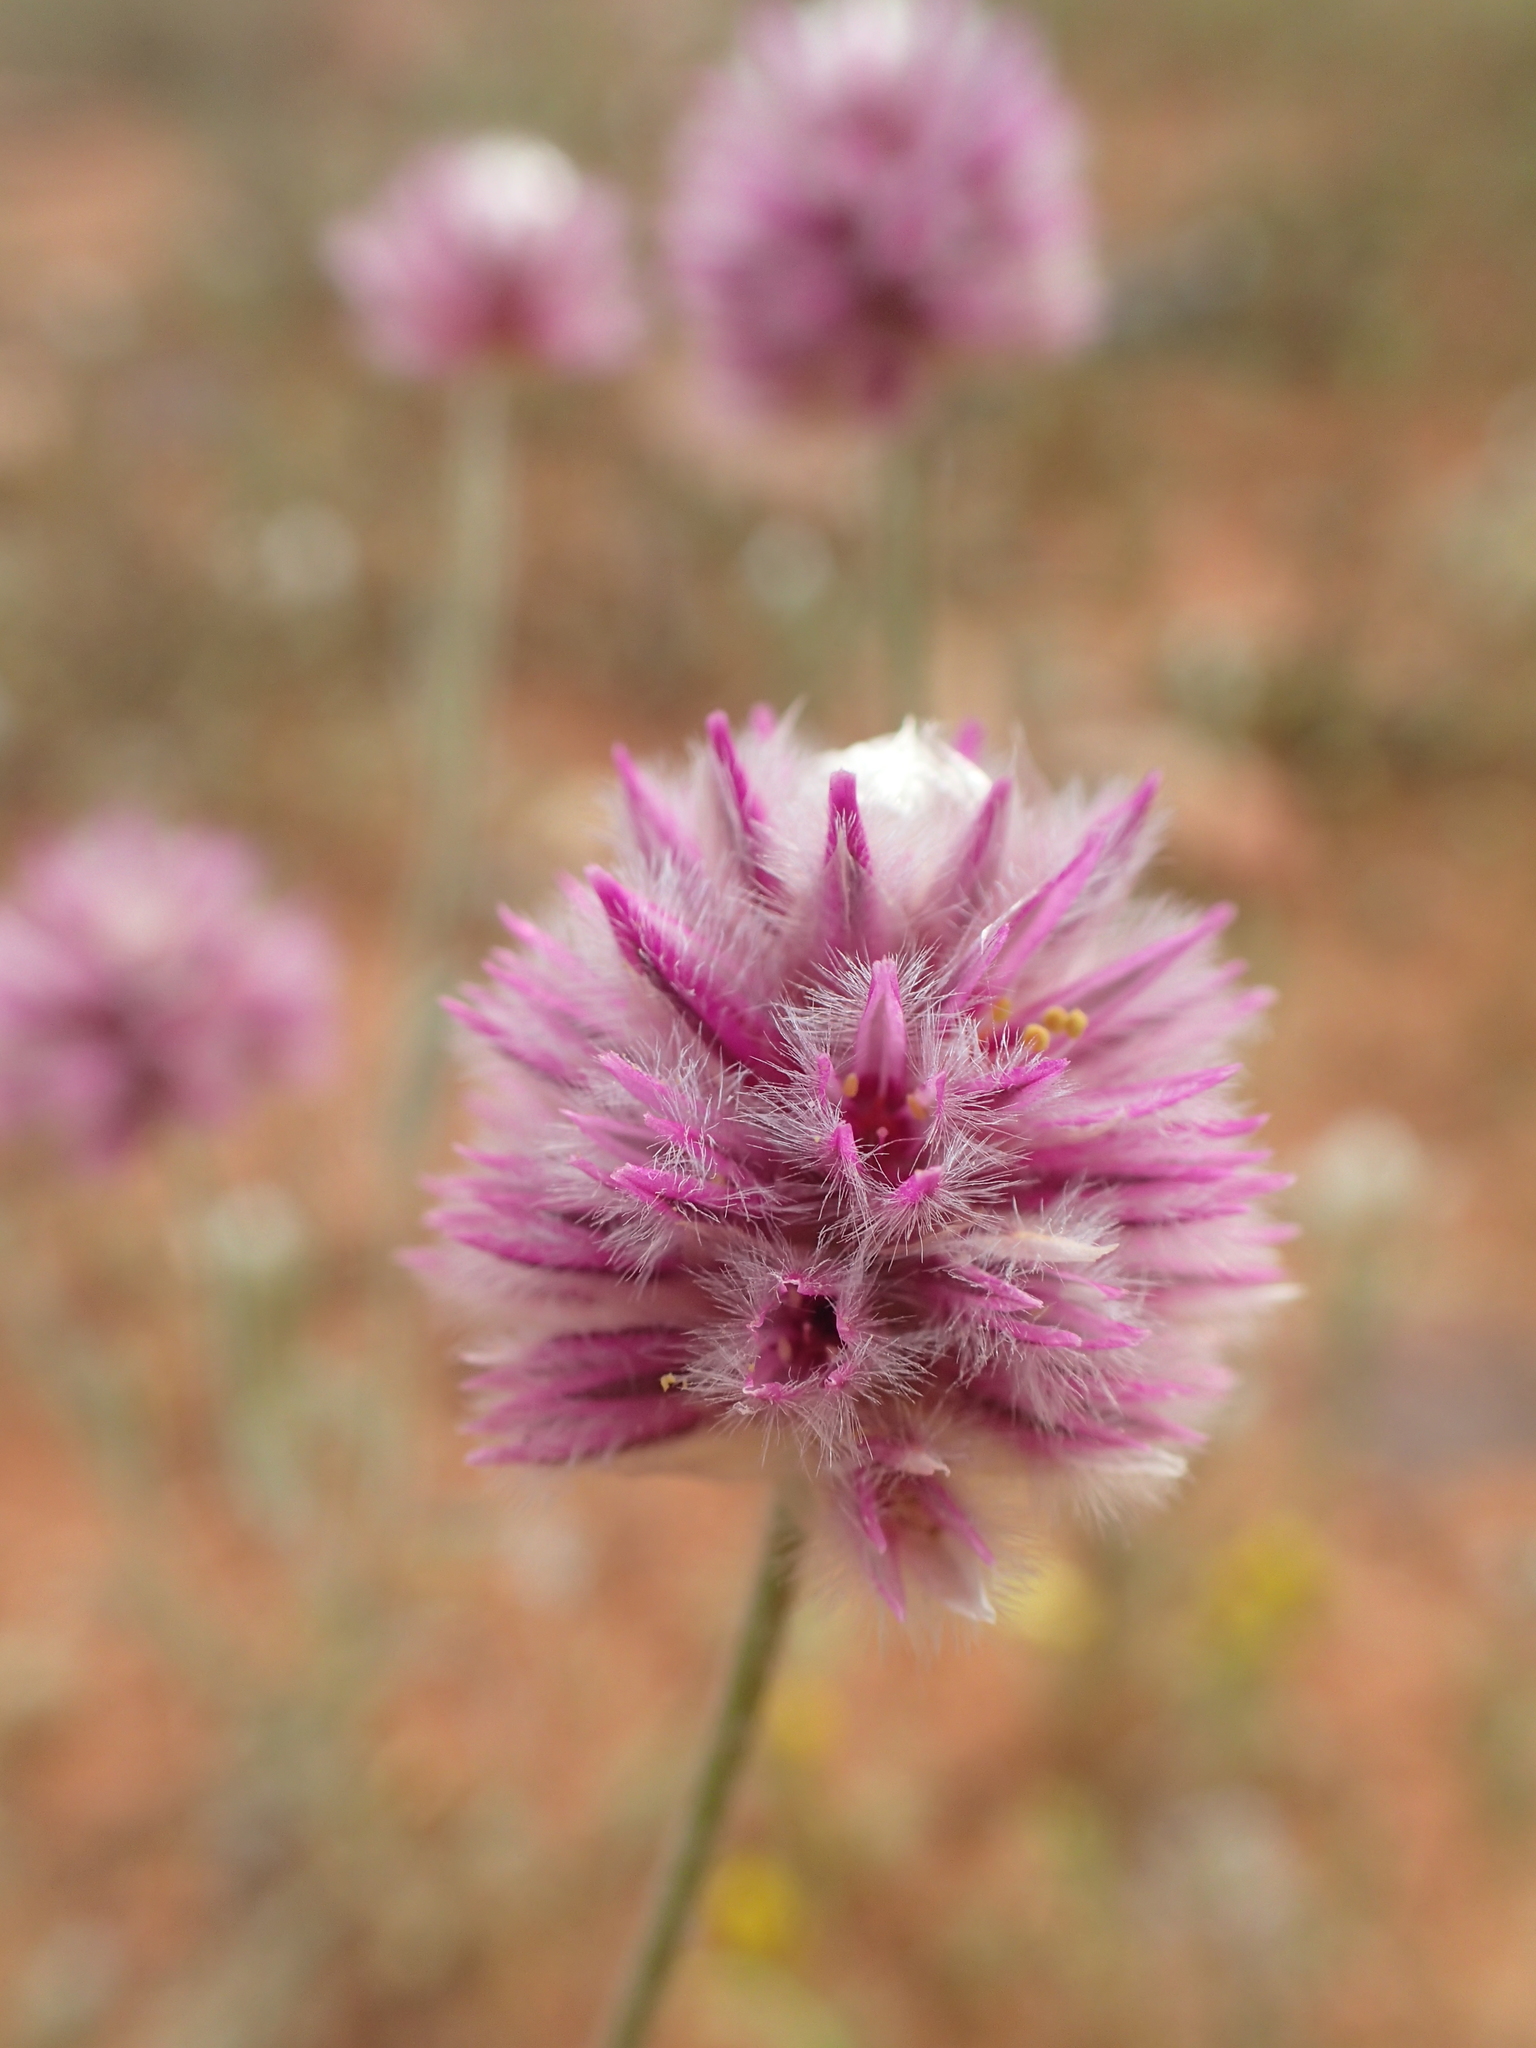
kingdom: Plantae
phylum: Tracheophyta
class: Magnoliopsida
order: Caryophyllales
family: Amaranthaceae
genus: Ptilotus
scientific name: Ptilotus helipteroides
